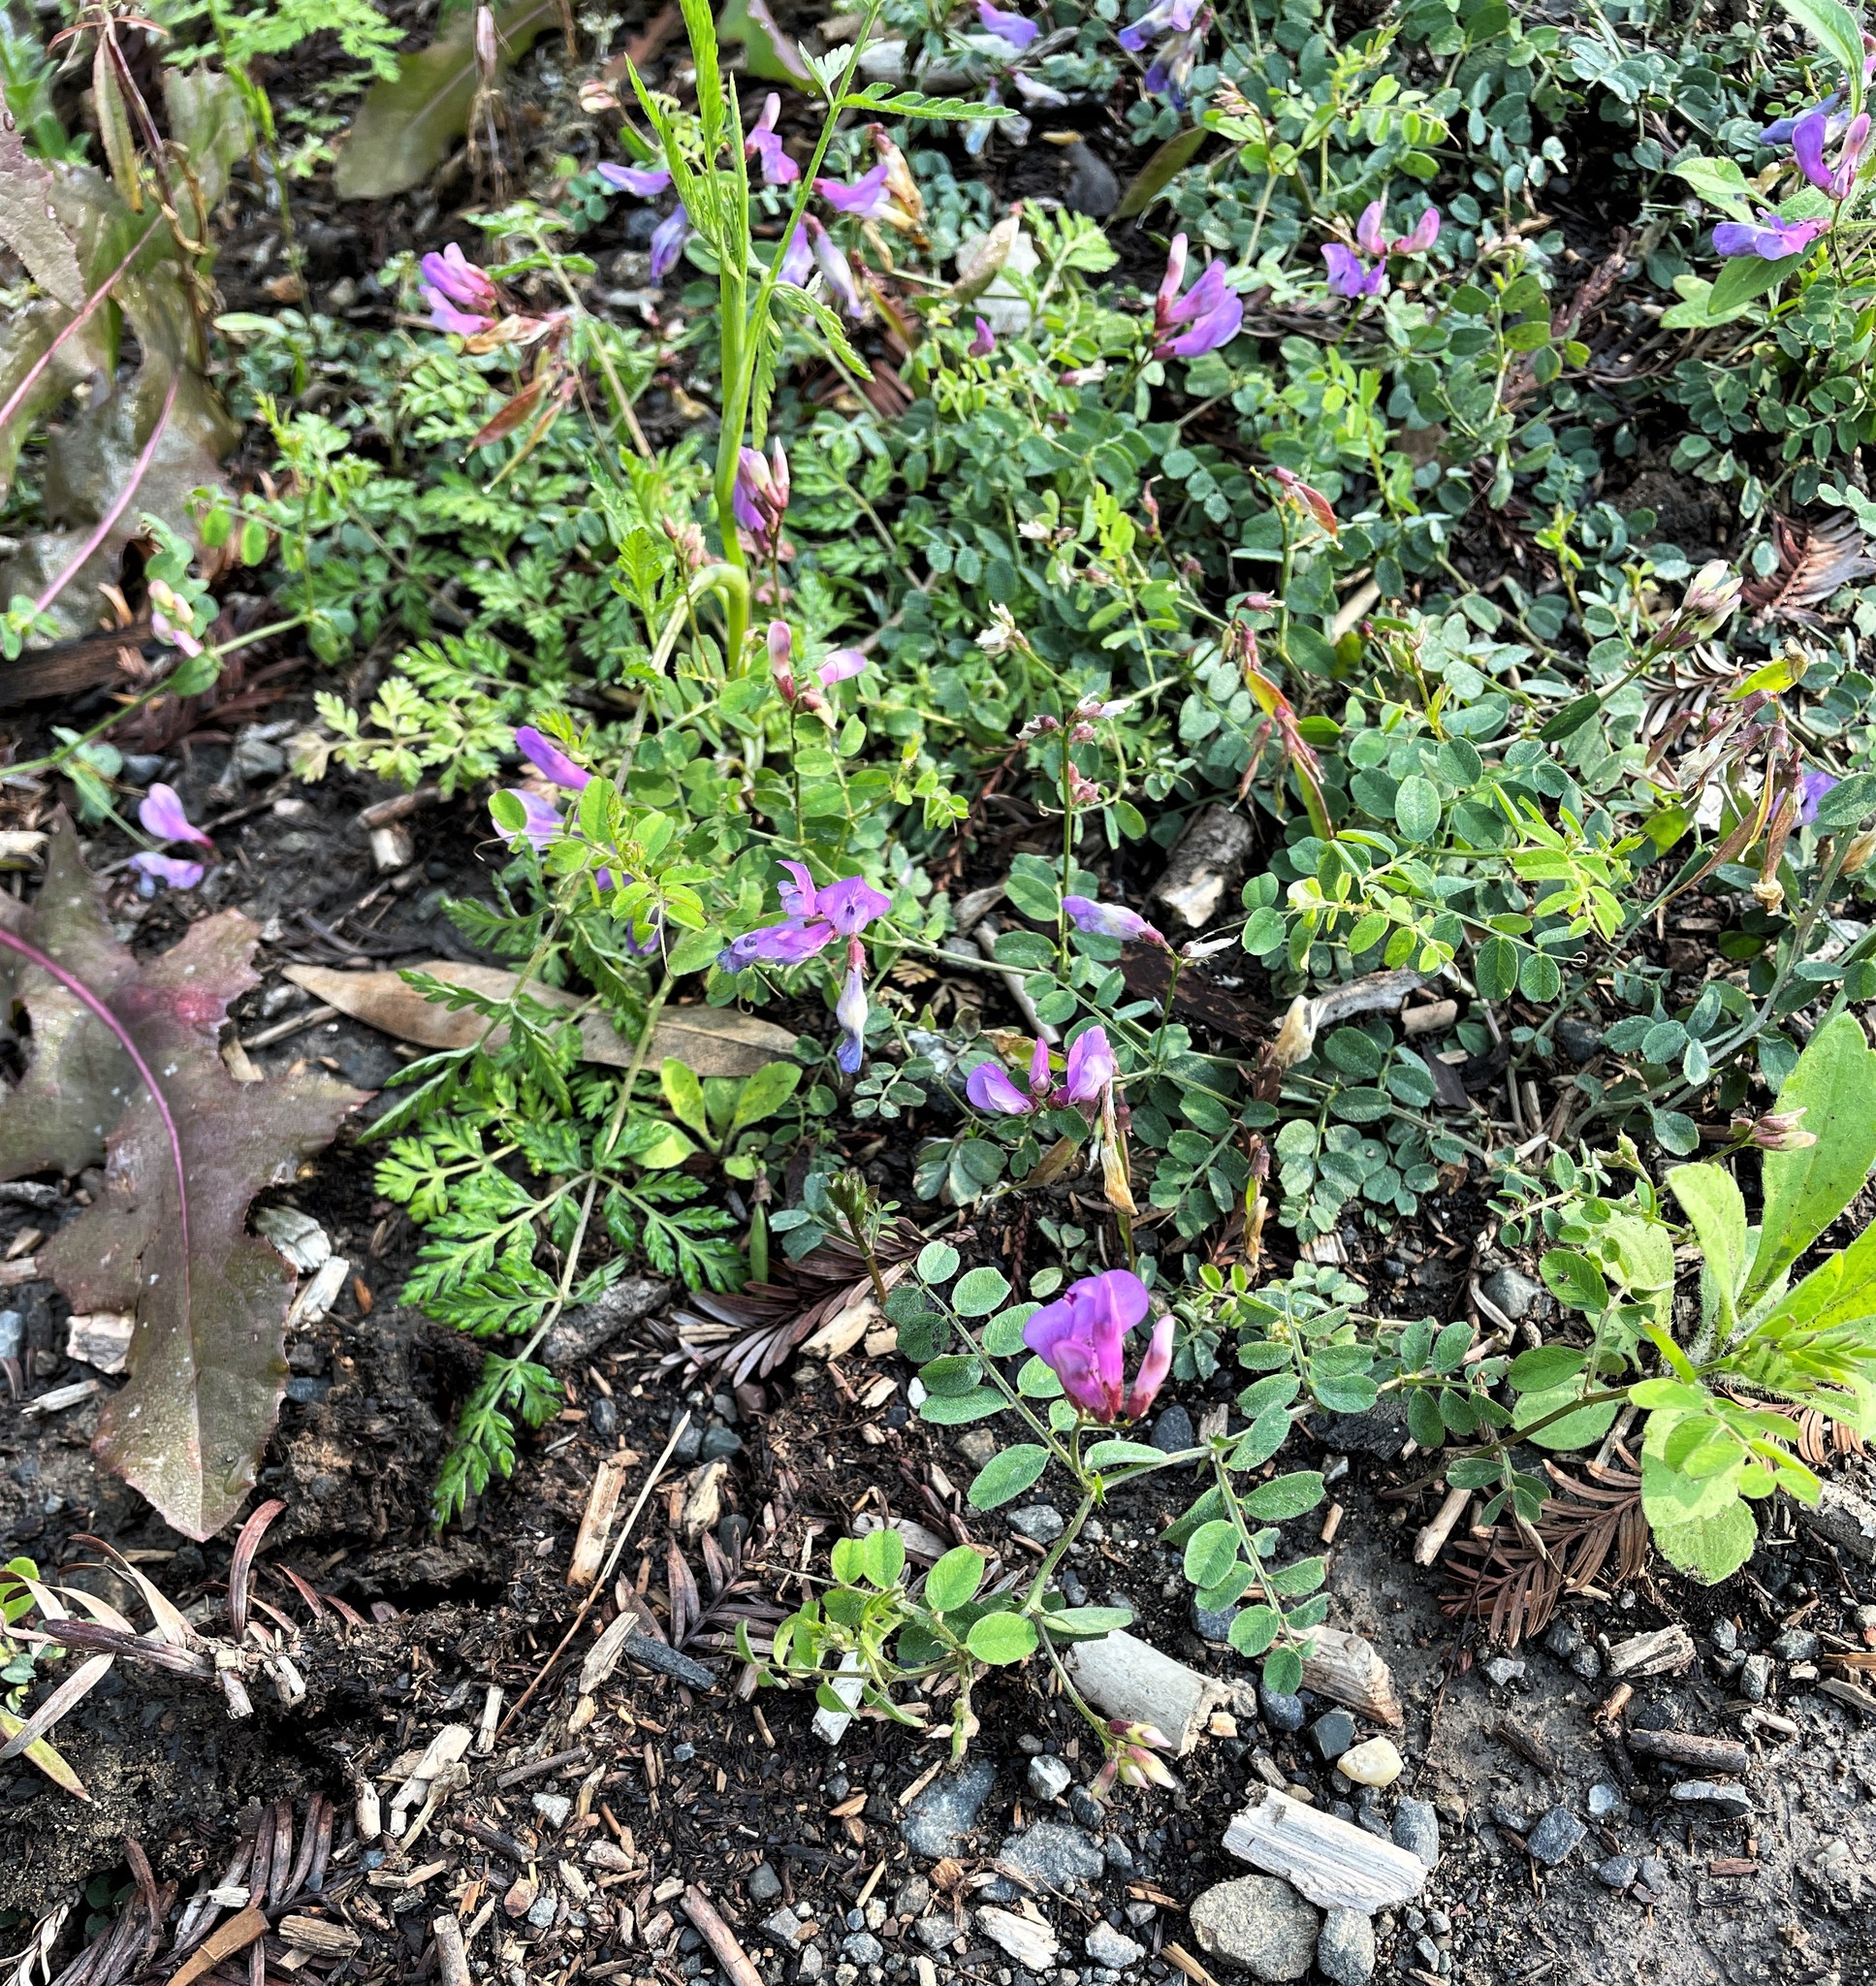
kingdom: Plantae
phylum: Tracheophyta
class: Magnoliopsida
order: Fabales
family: Fabaceae
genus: Lathyrus
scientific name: Lathyrus nevadensis
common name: Sierra nevada peavine
